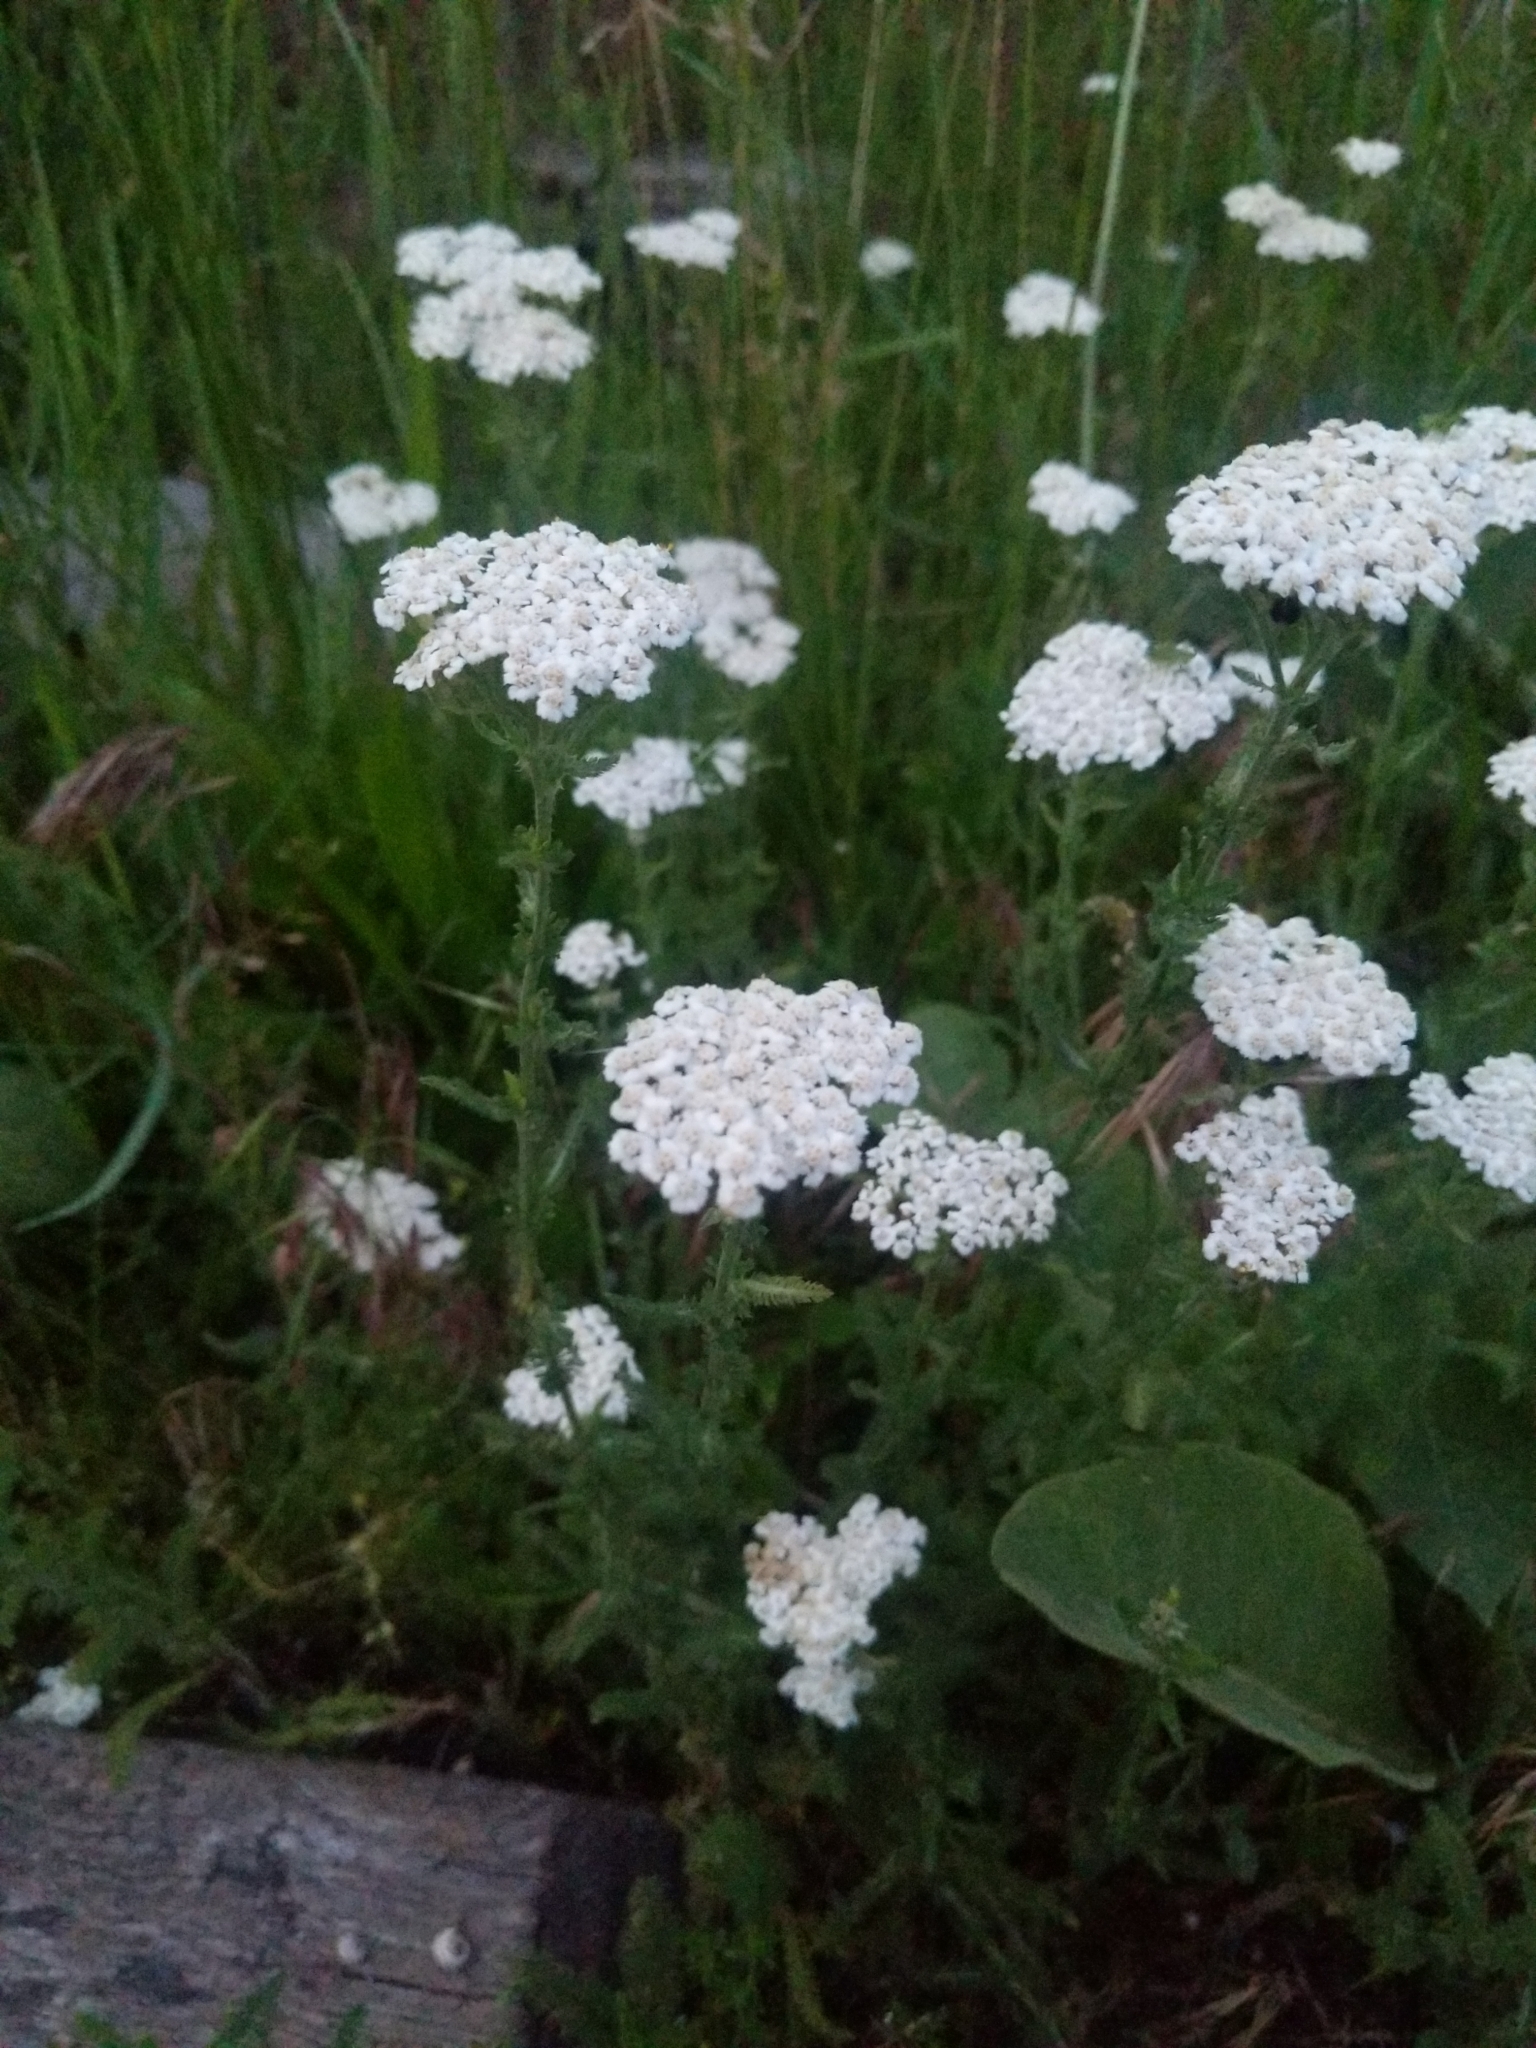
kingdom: Plantae
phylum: Tracheophyta
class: Magnoliopsida
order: Asterales
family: Asteraceae
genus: Achillea
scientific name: Achillea millefolium
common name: Yarrow
